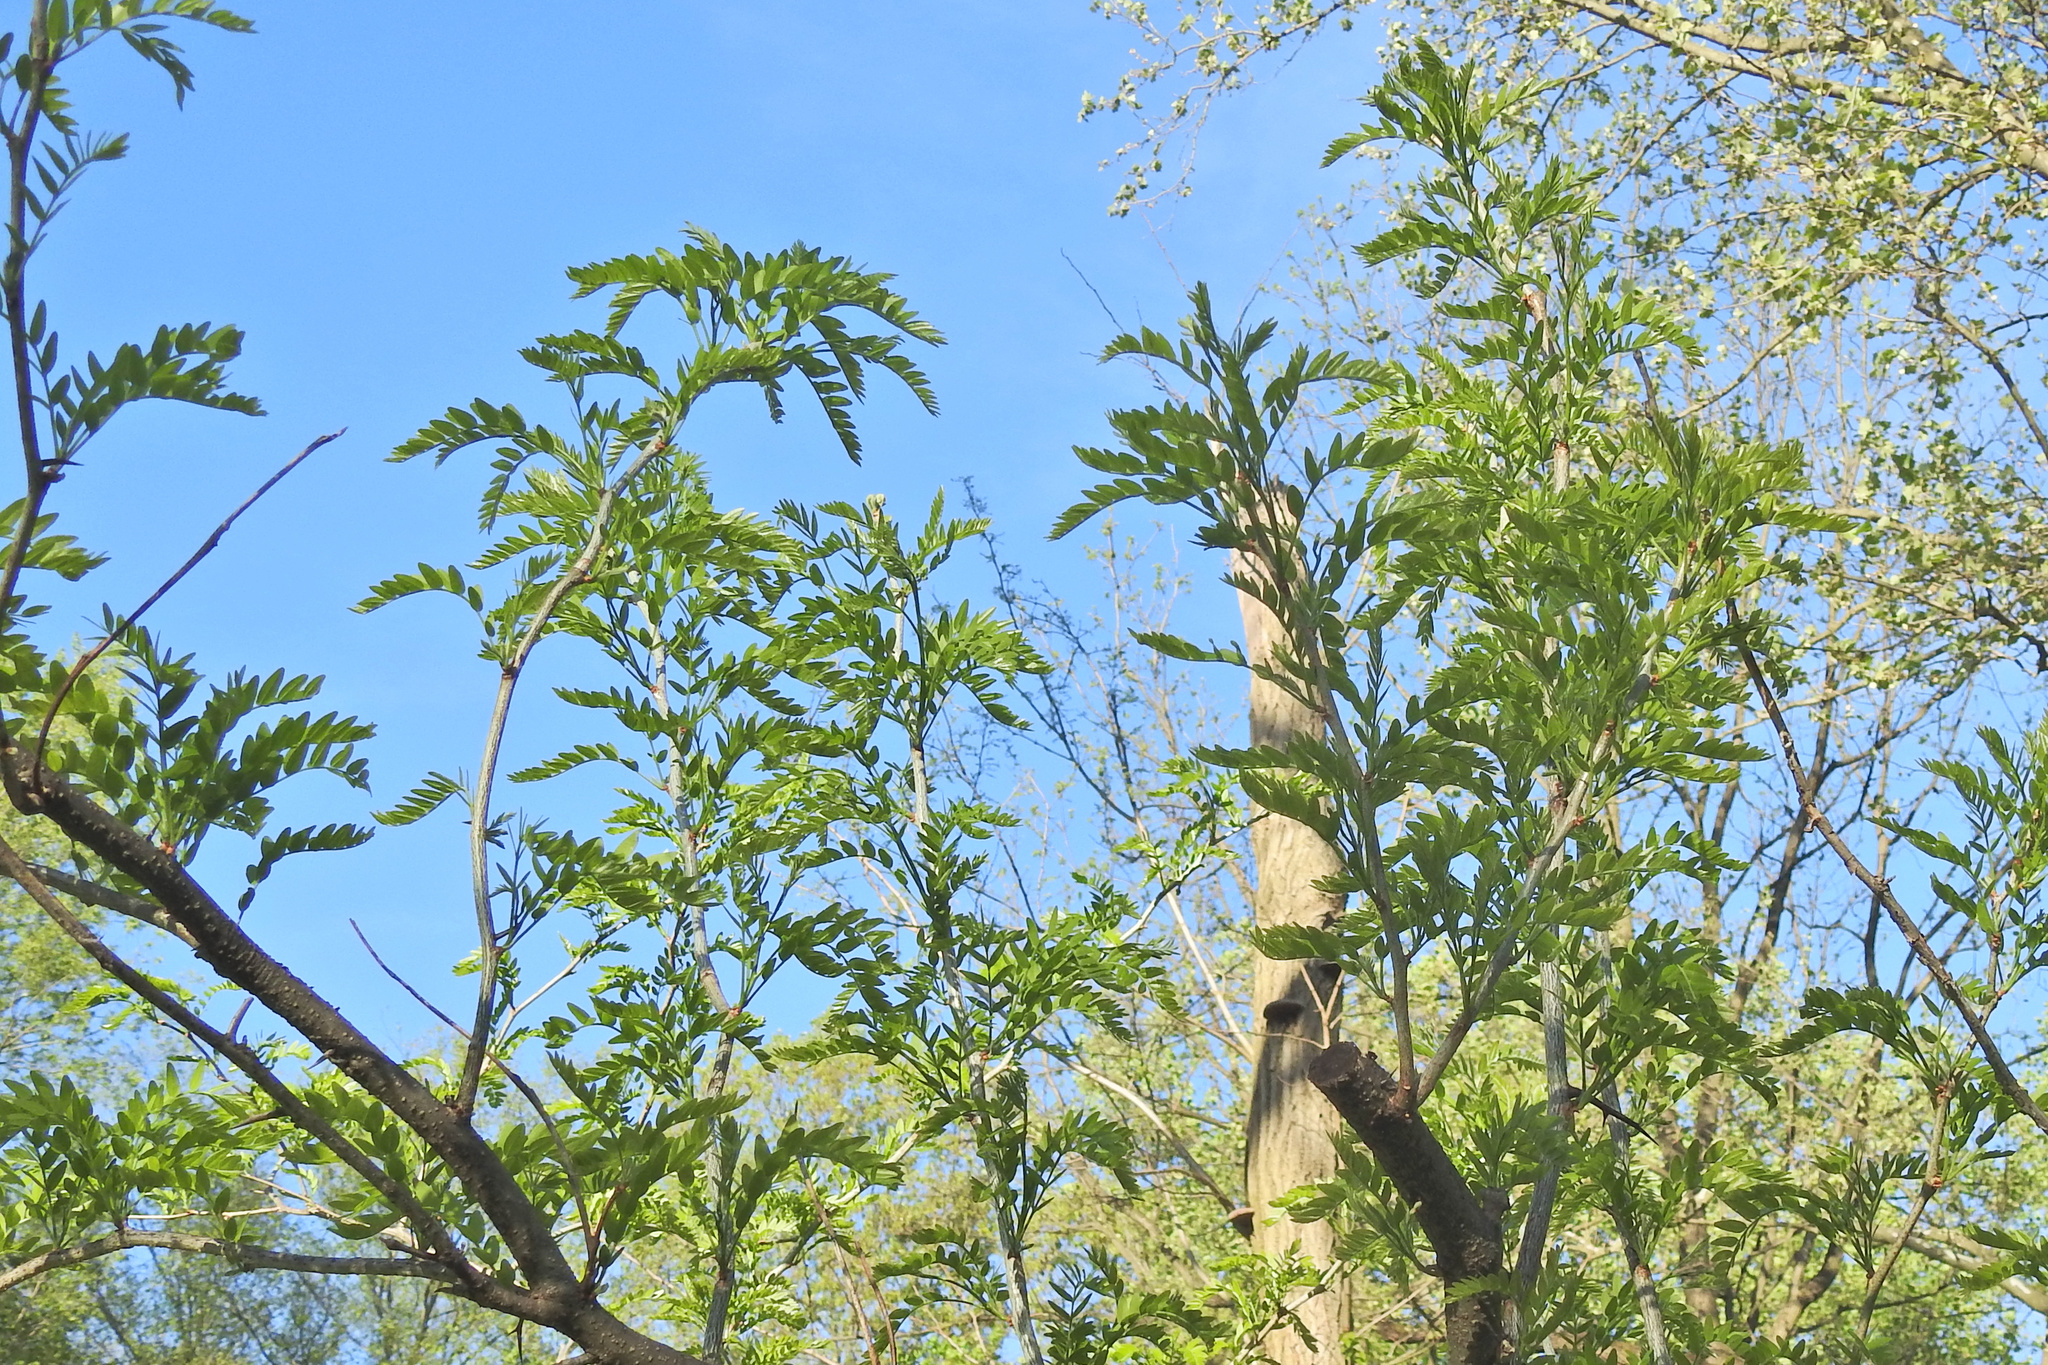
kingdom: Plantae
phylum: Tracheophyta
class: Magnoliopsida
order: Fabales
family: Fabaceae
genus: Gleditsia
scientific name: Gleditsia triacanthos
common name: Common honeylocust
